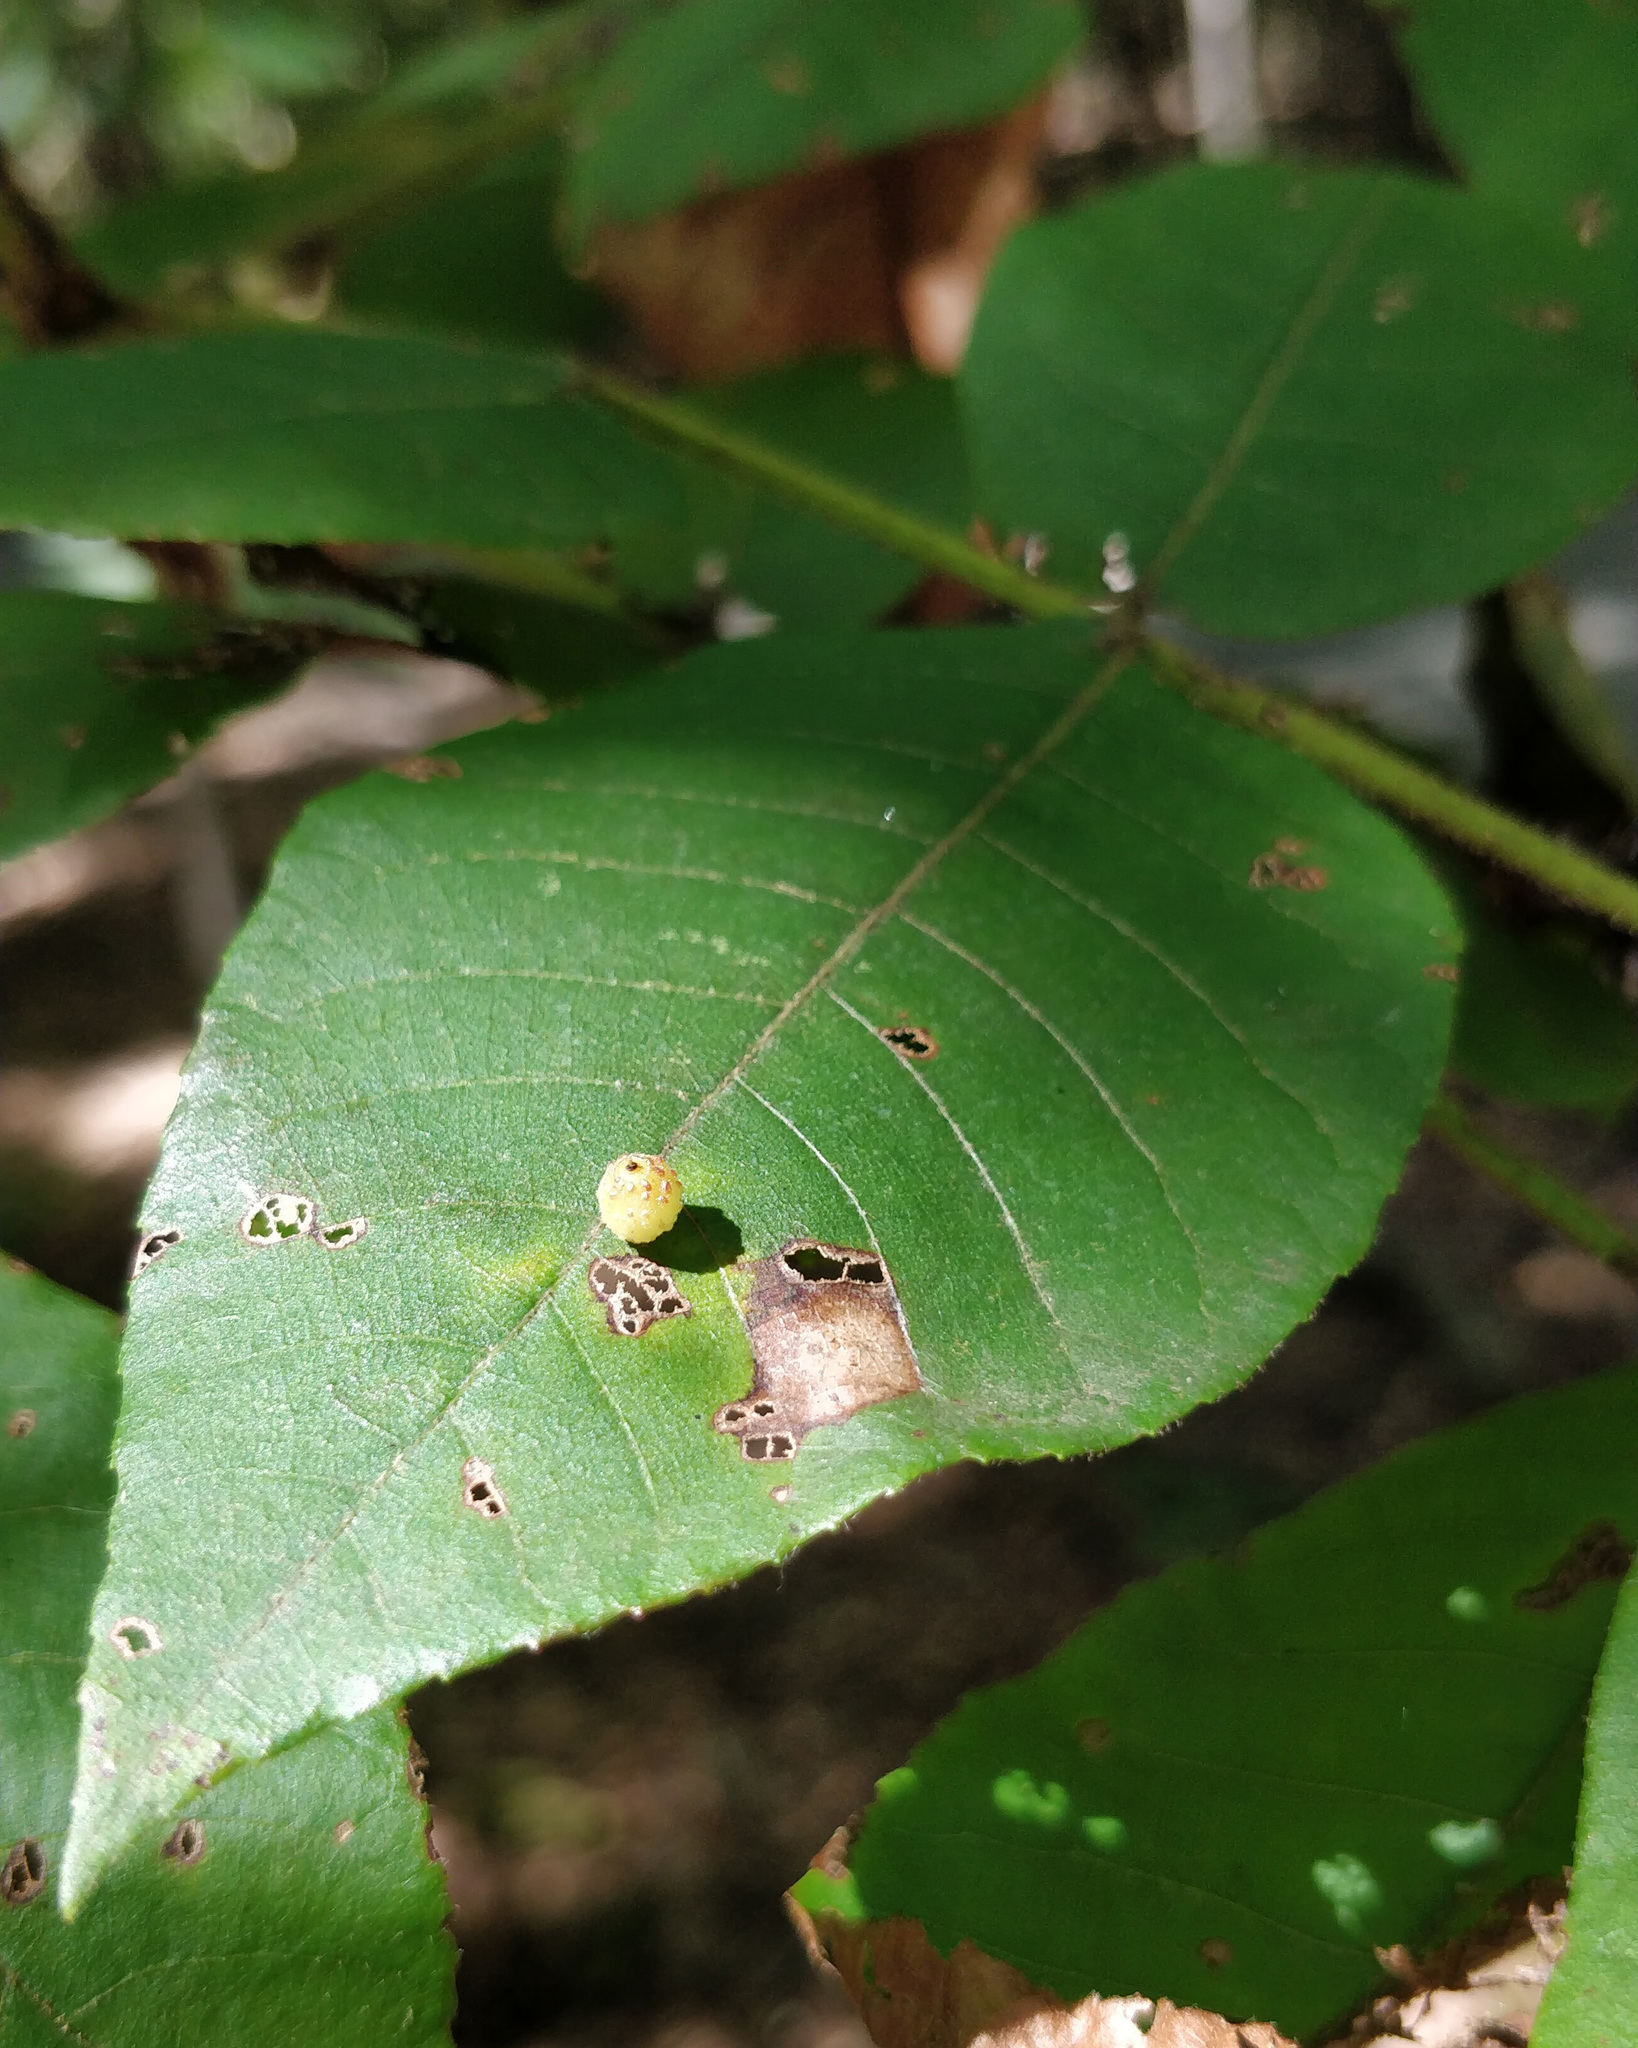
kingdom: Animalia
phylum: Arthropoda
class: Insecta
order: Diptera
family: Cecidomyiidae
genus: Caryomyia
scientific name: Caryomyia viscidolium
